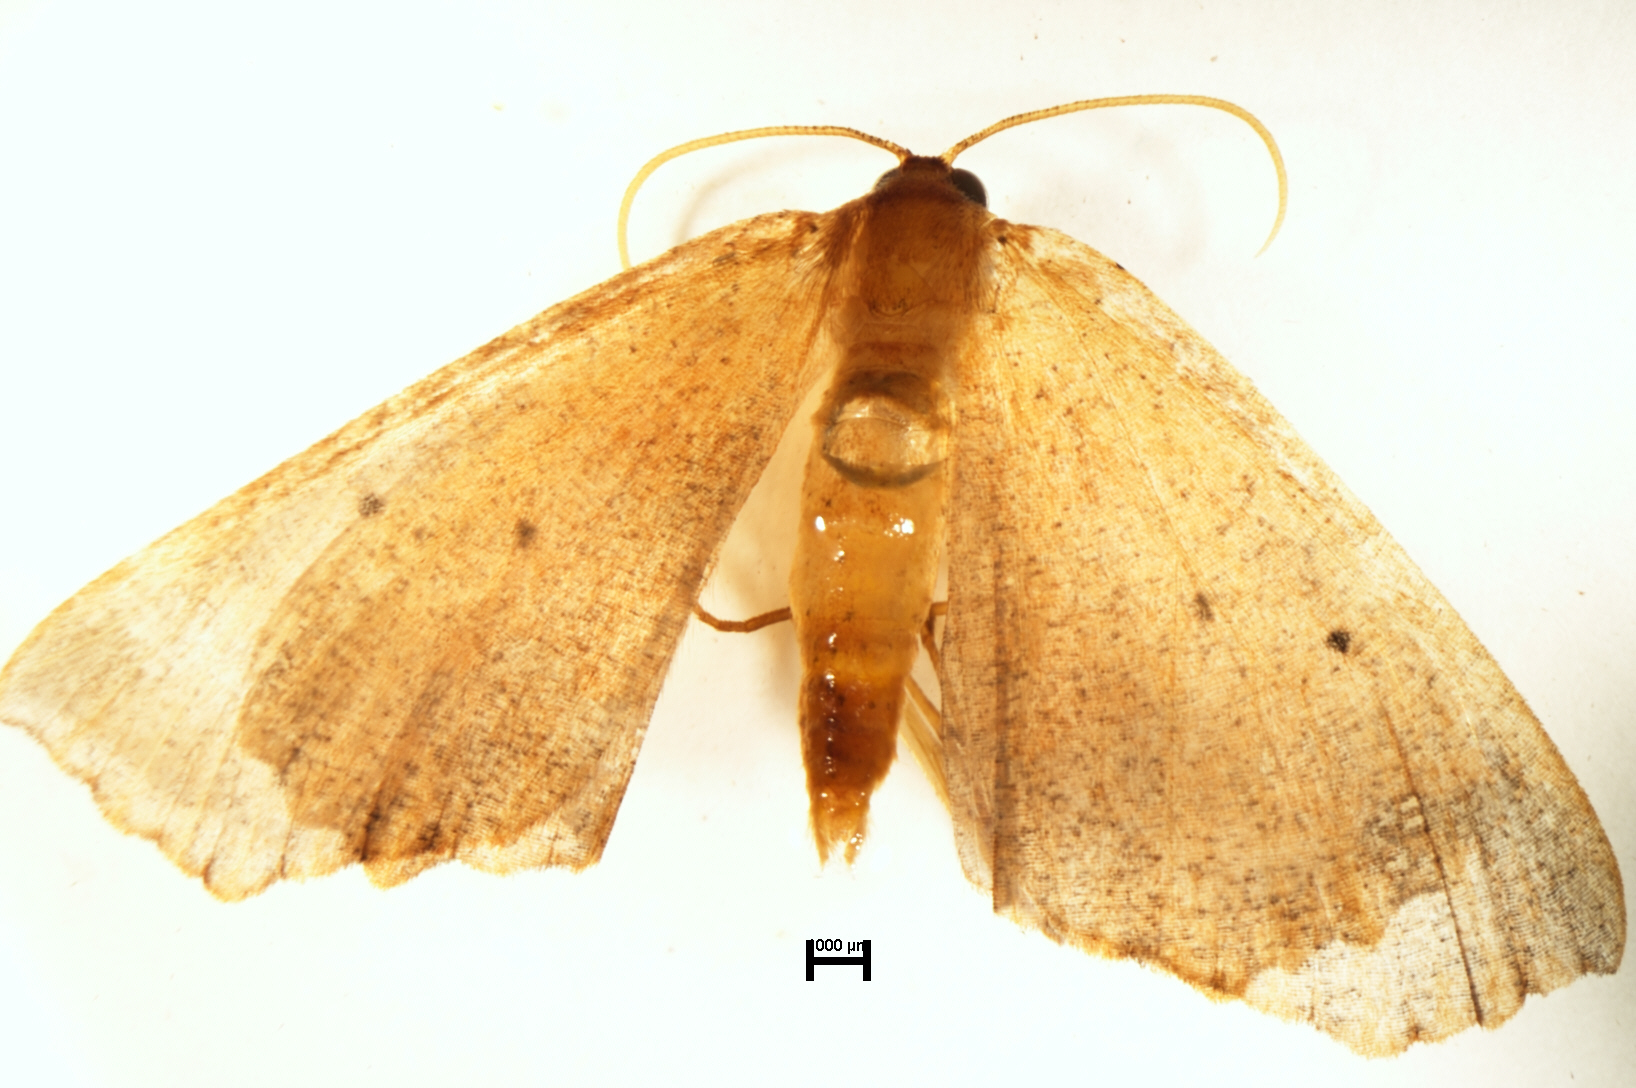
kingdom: Animalia
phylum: Arthropoda
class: Insecta
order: Lepidoptera
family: Geometridae
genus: Xyridacma
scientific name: Xyridacma ustaria
